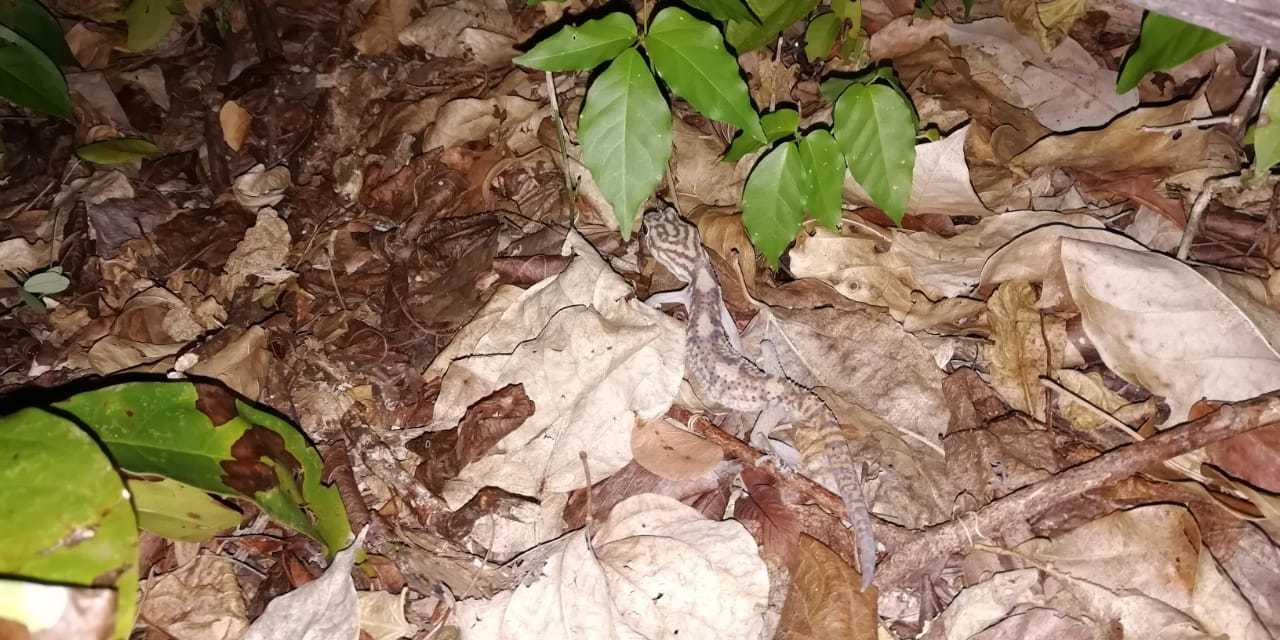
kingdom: Animalia
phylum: Chordata
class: Squamata
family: Eublepharidae
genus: Coleonyx
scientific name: Coleonyx elegans
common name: Yucatan banded gecko
